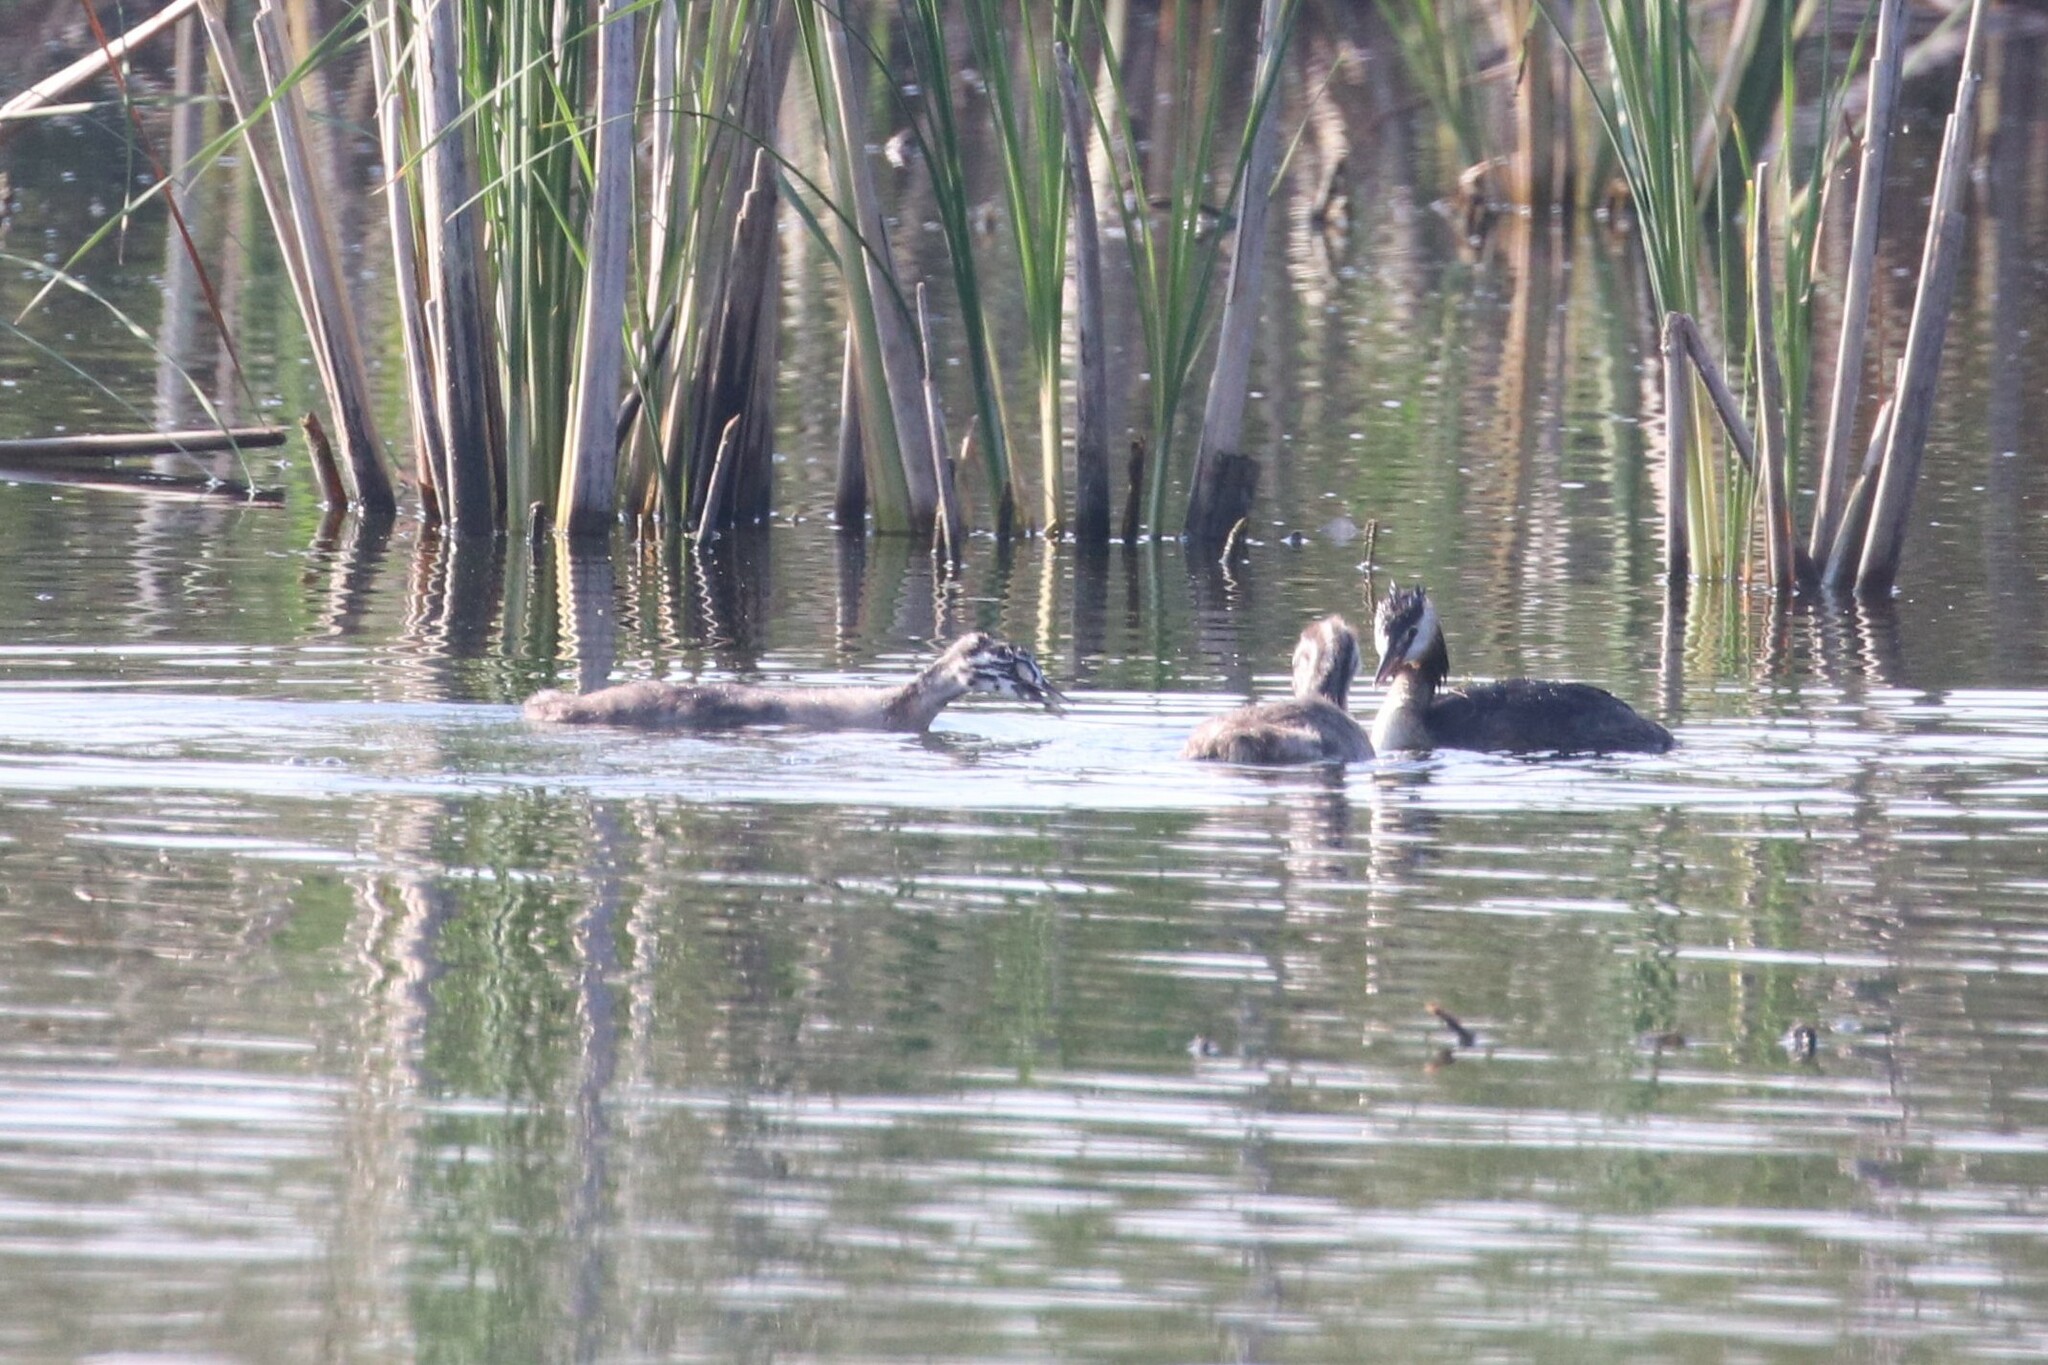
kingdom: Animalia
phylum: Chordata
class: Aves
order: Podicipediformes
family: Podicipedidae
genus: Podiceps
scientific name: Podiceps cristatus
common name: Great crested grebe
